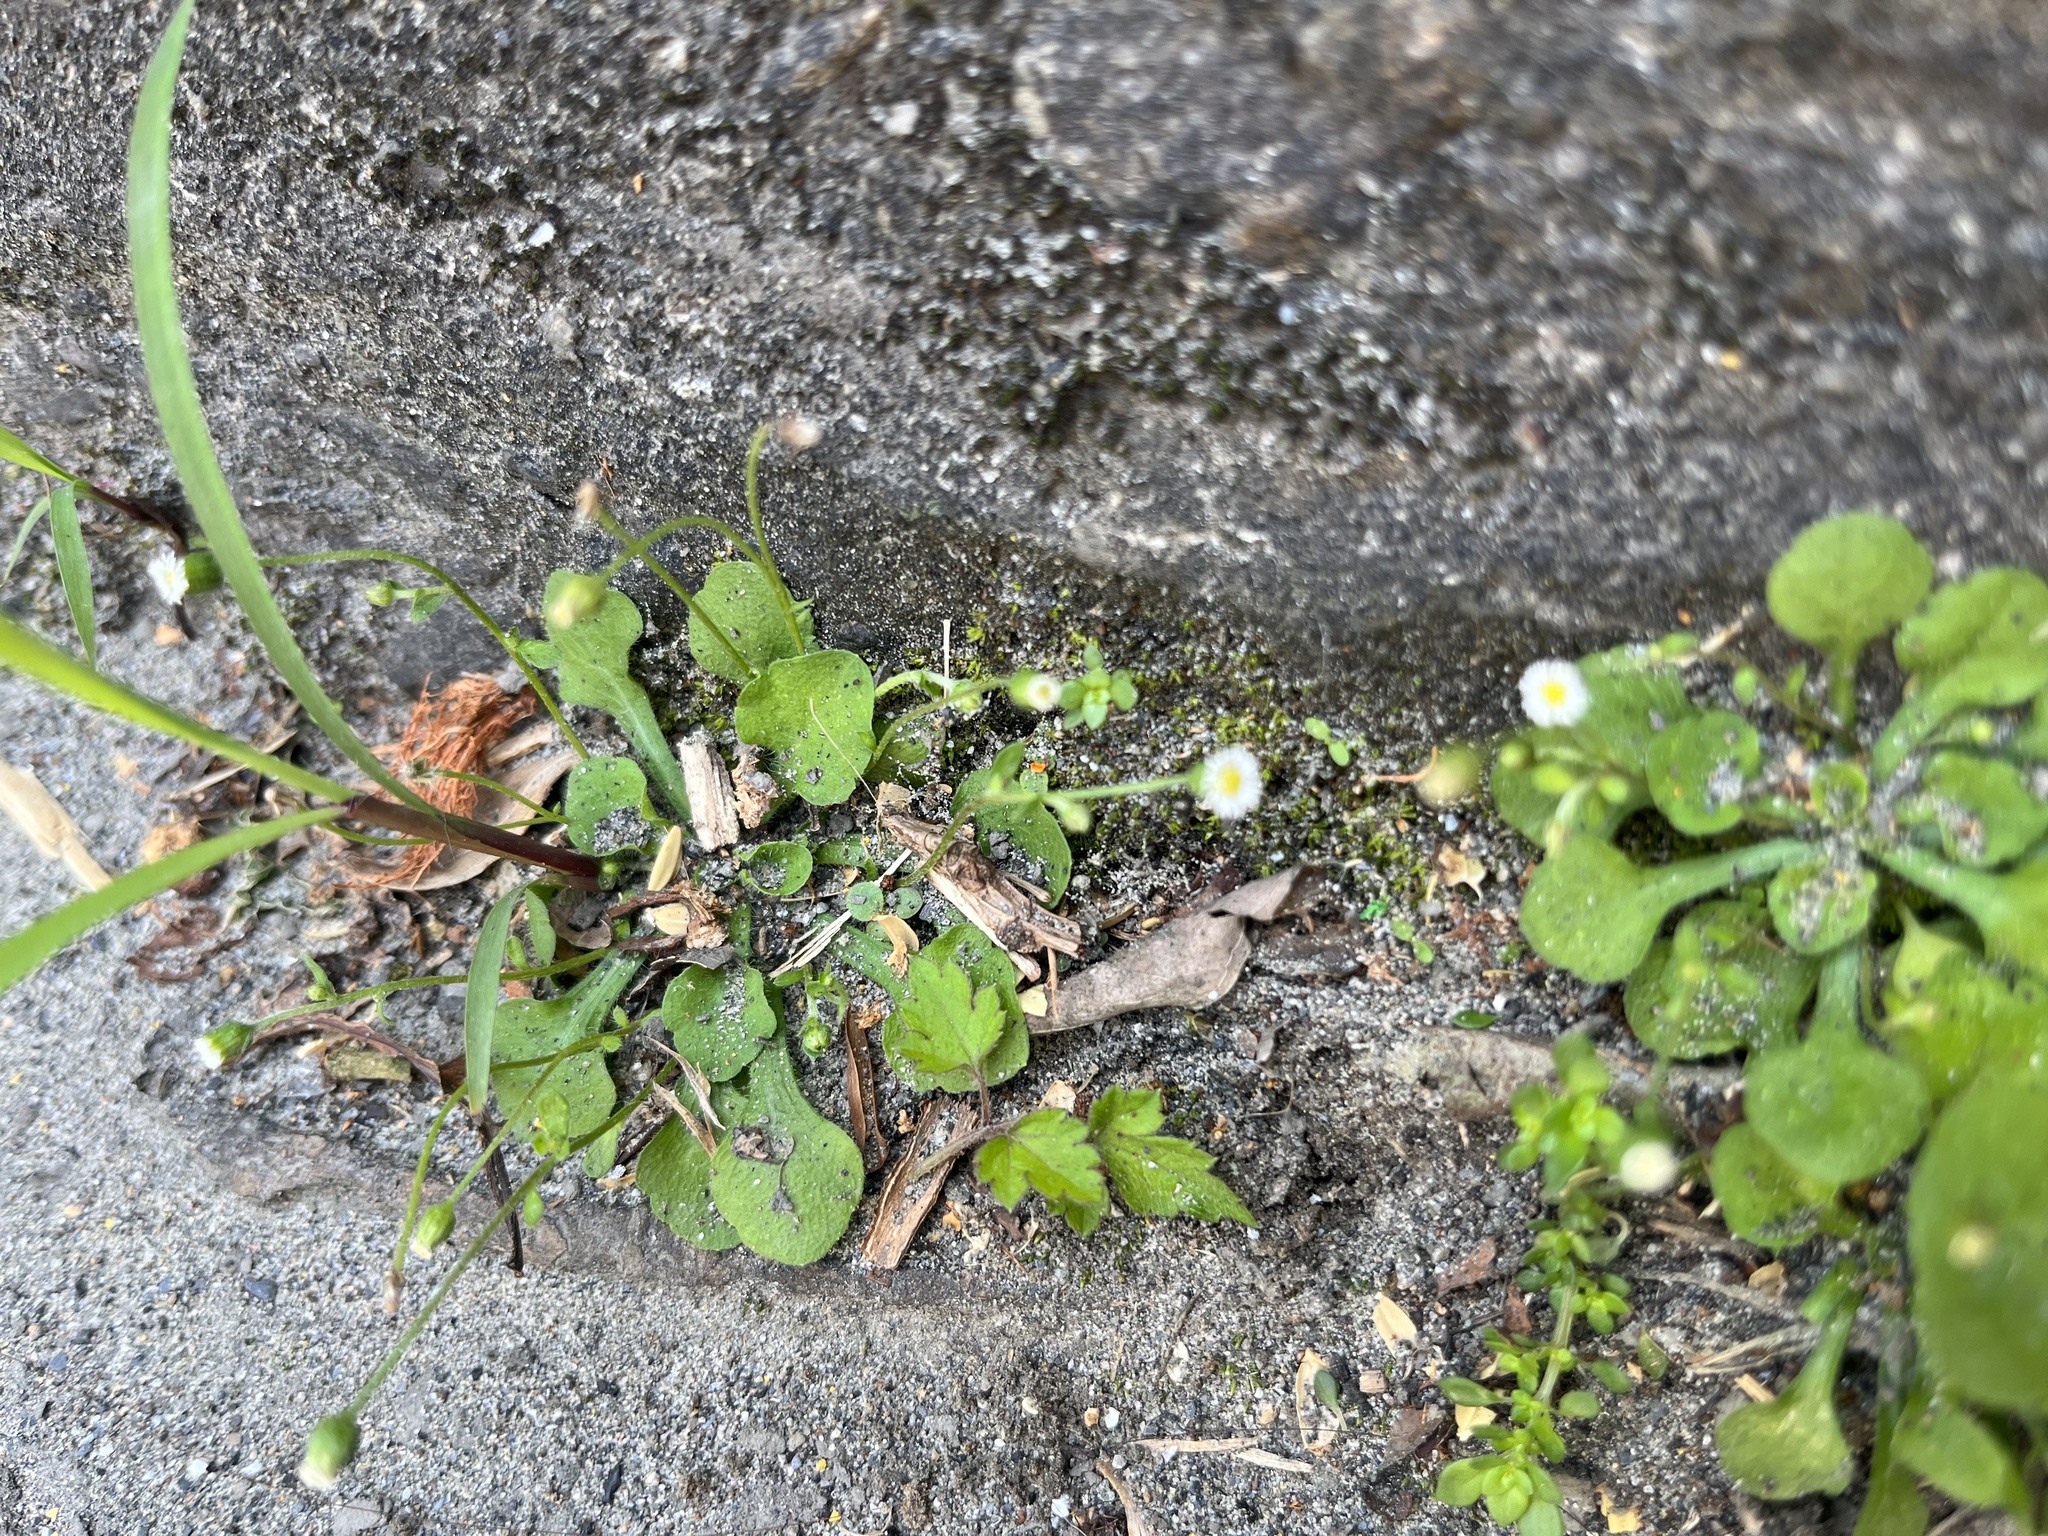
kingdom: Plantae
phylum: Tracheophyta
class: Magnoliopsida
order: Asterales
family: Asteraceae
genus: Erigeron
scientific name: Erigeron bellioides
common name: Bellorita
